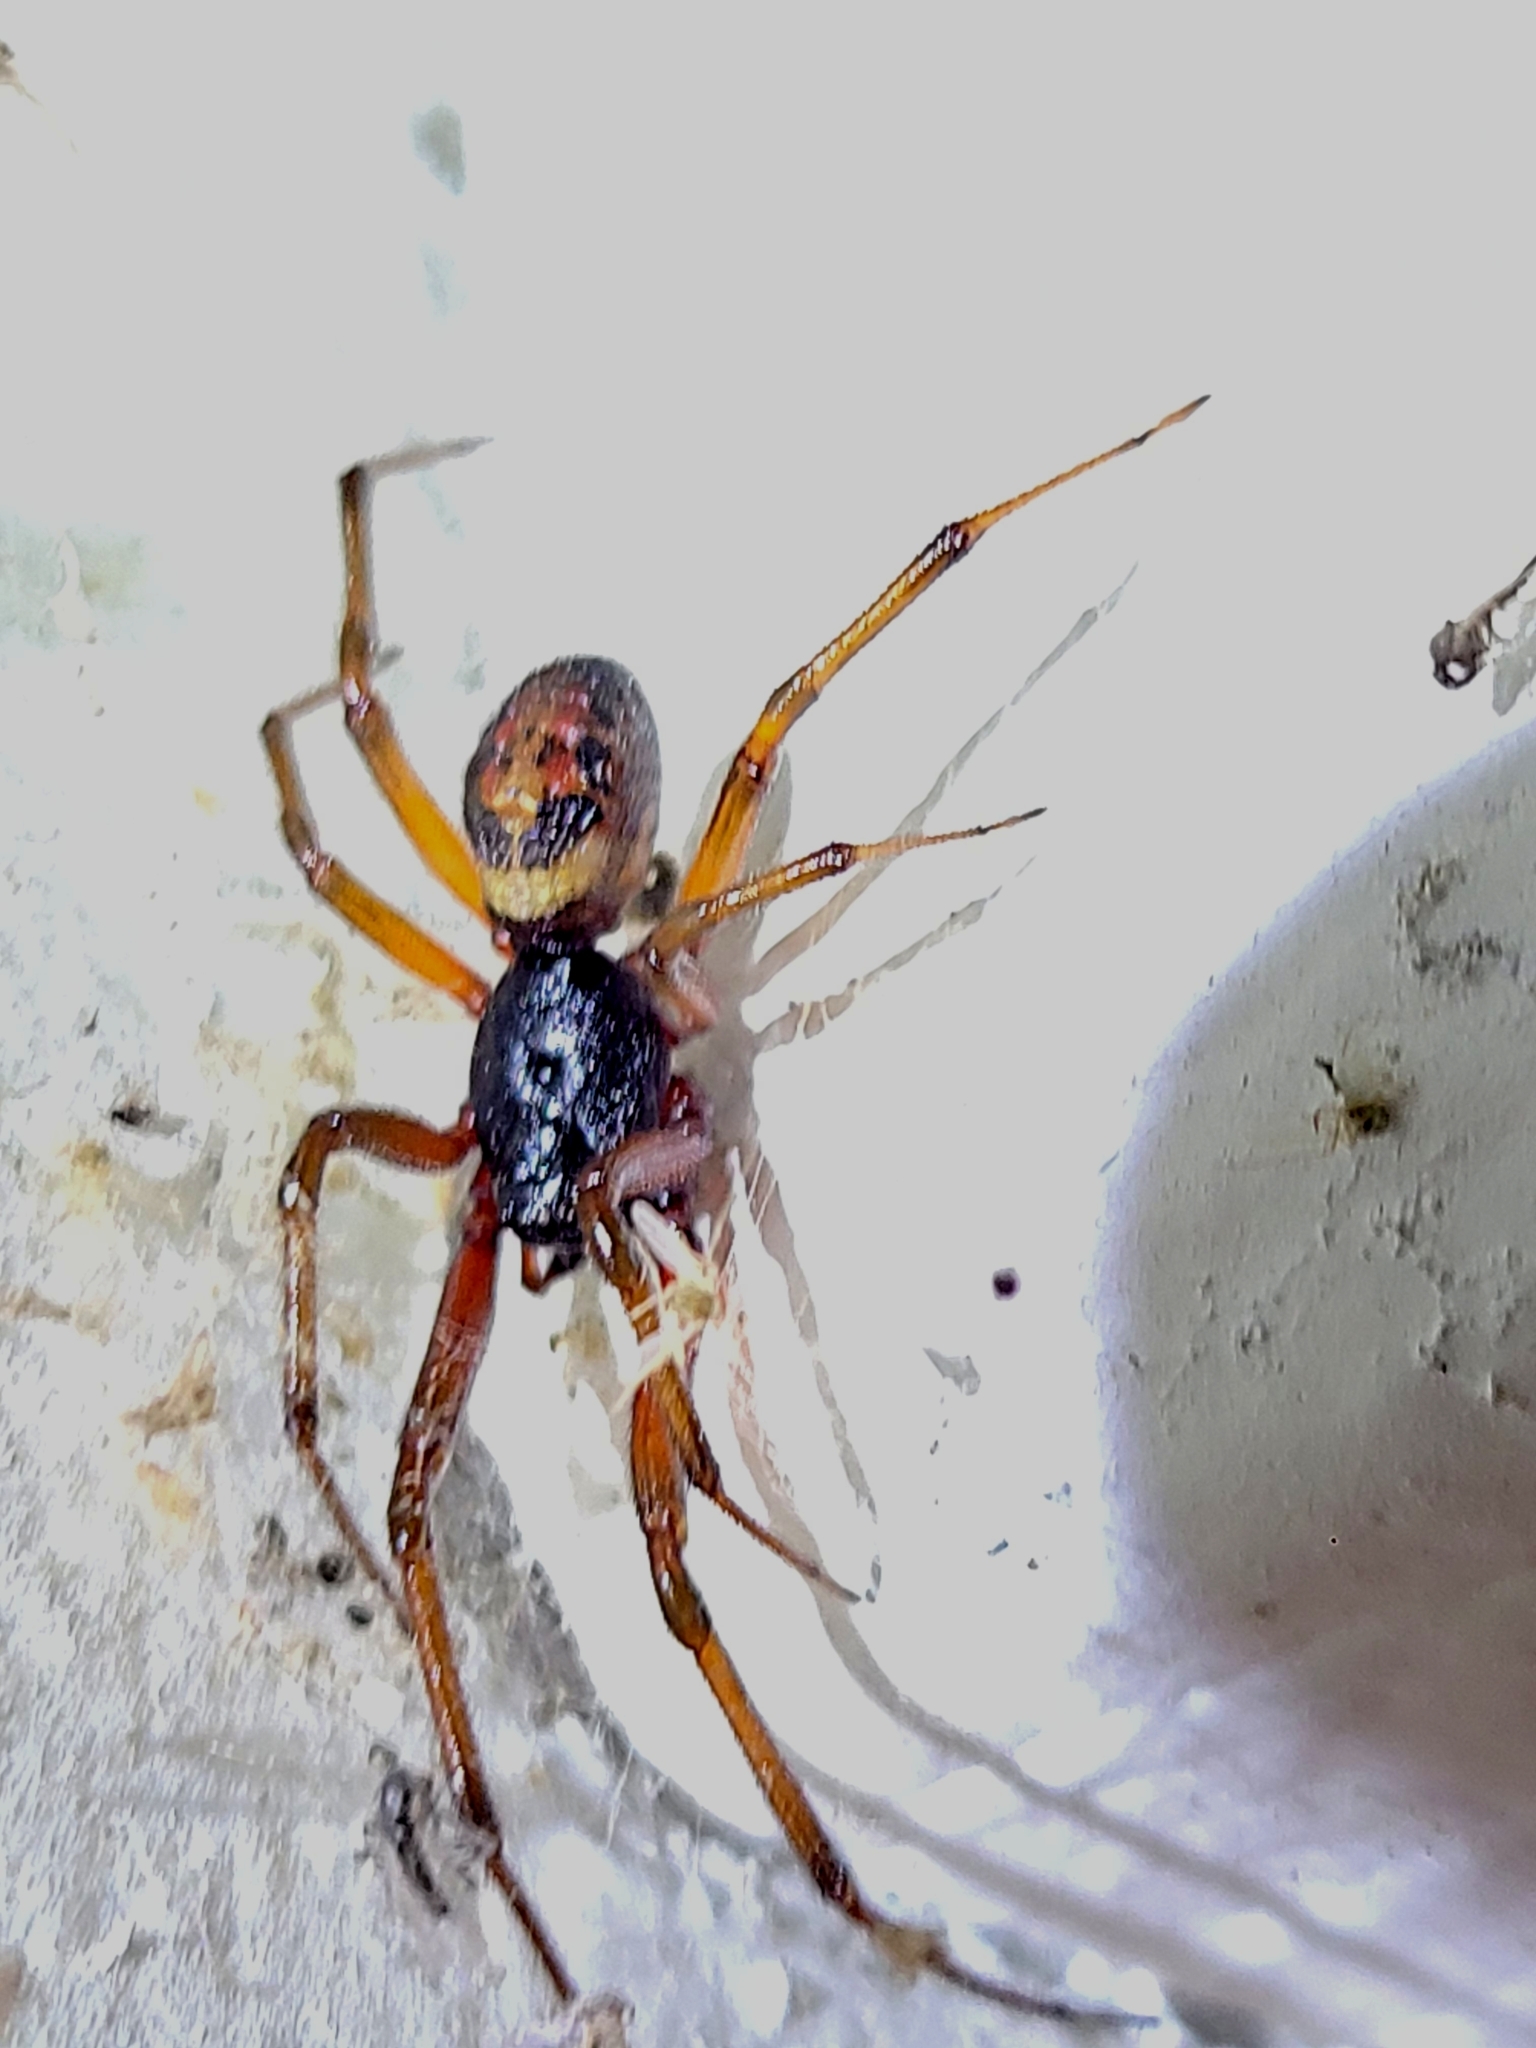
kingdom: Animalia
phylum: Arthropoda
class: Arachnida
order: Araneae
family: Theridiidae
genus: Steatoda
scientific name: Steatoda nobilis
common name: Cobweb weaver
